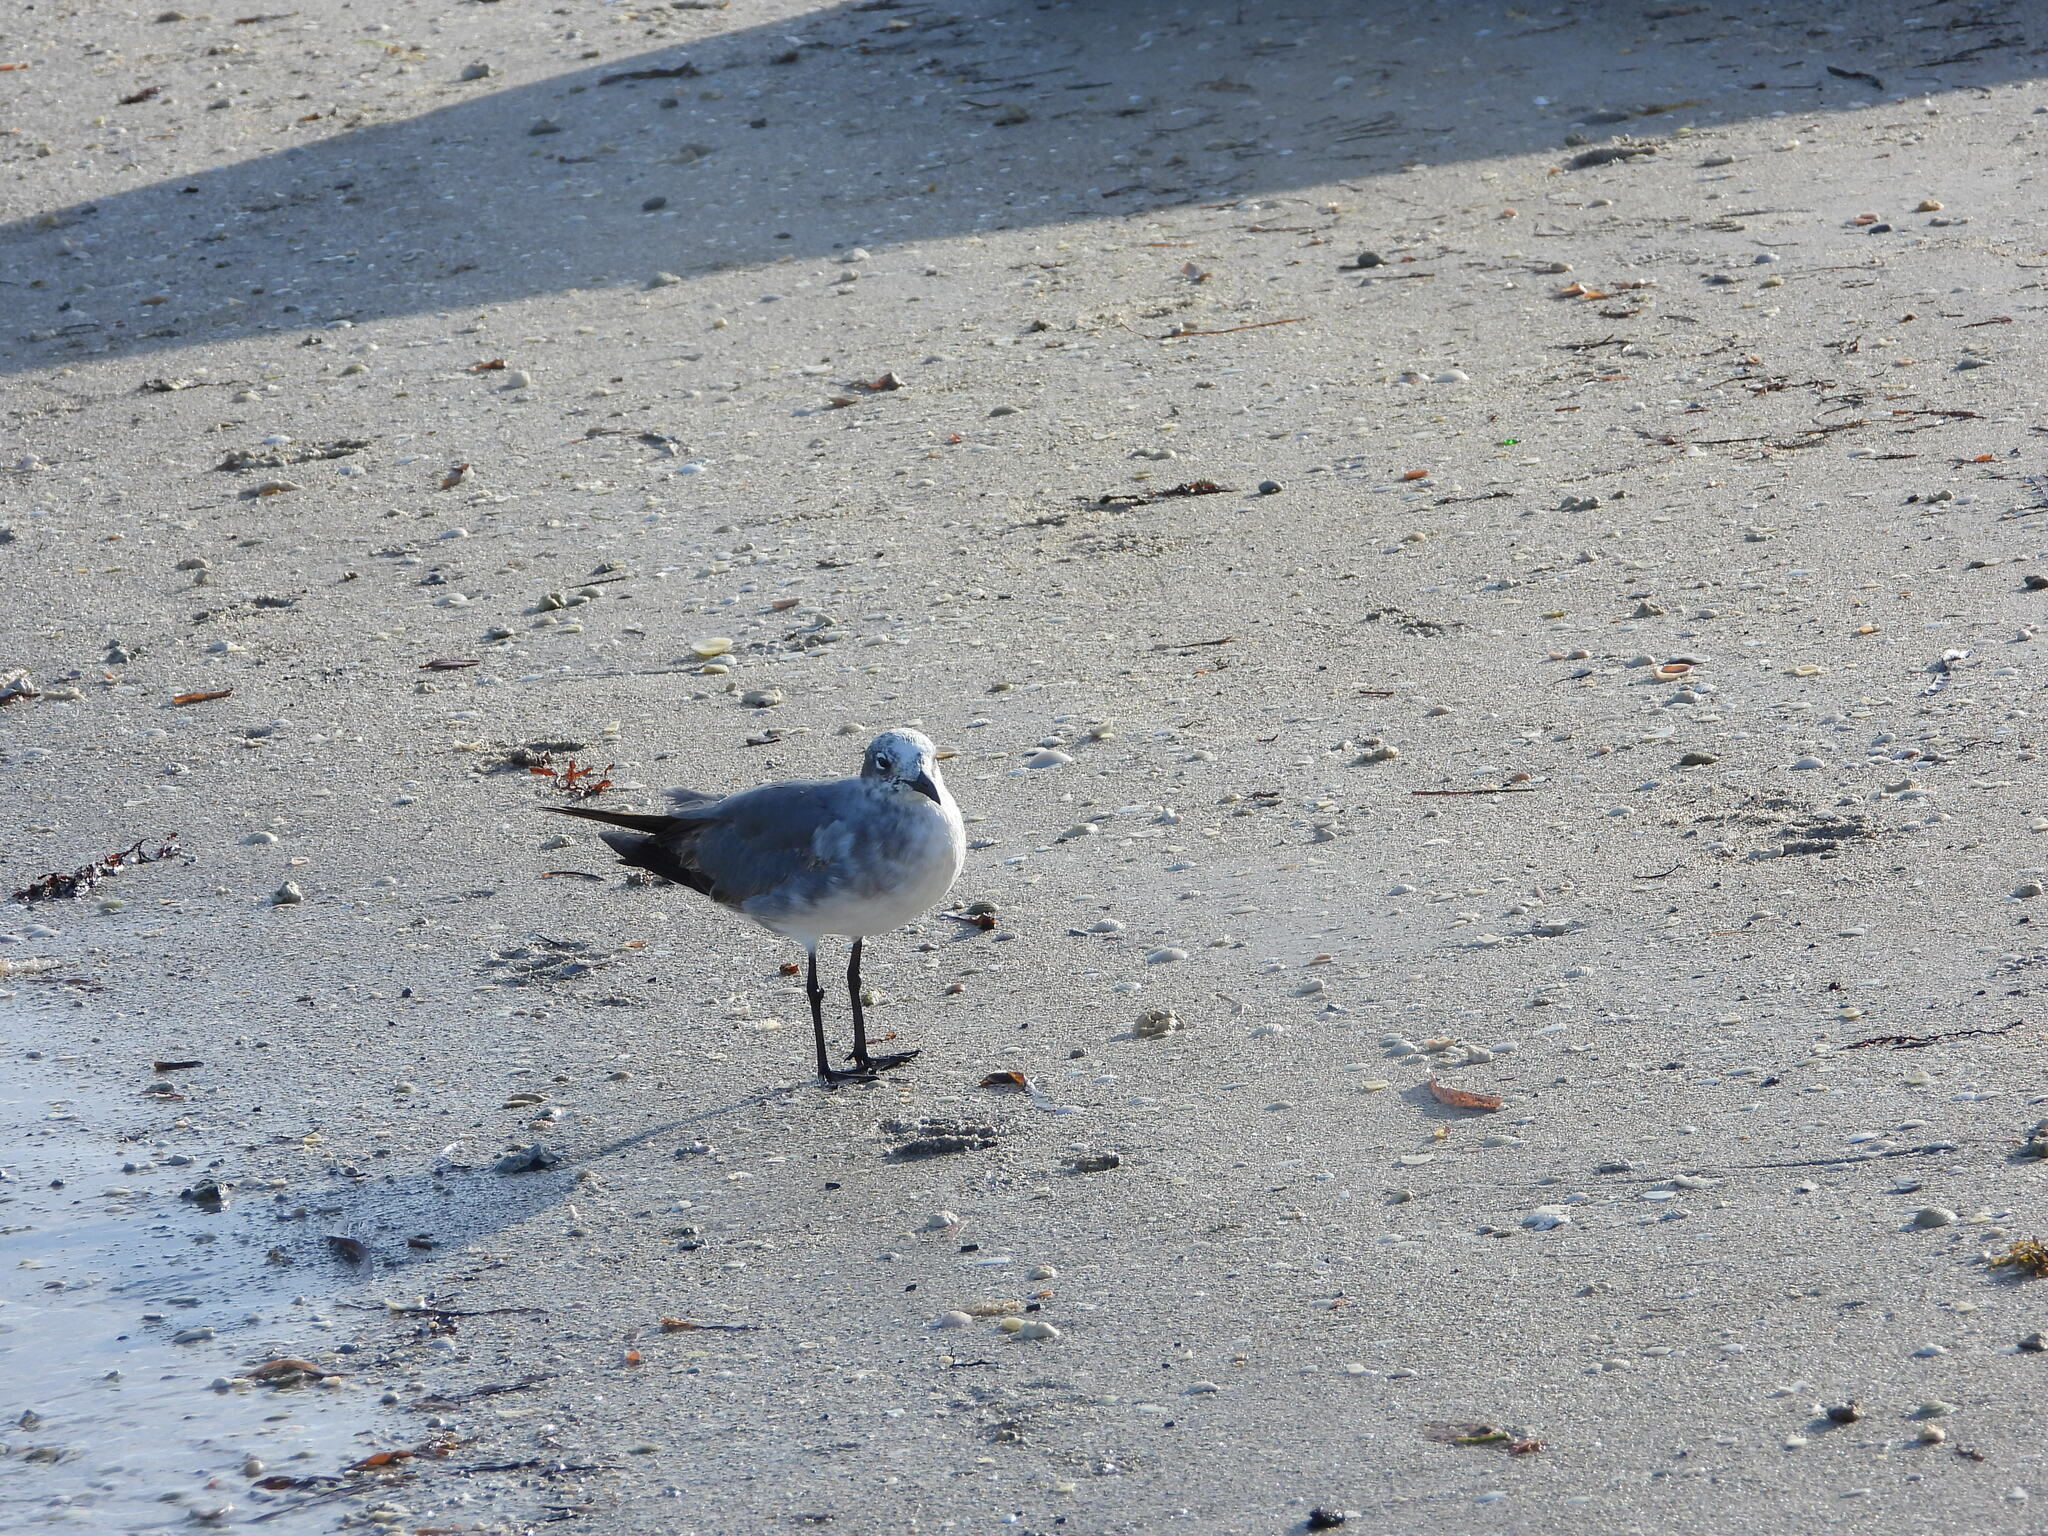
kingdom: Animalia
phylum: Chordata
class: Aves
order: Charadriiformes
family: Laridae
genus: Leucophaeus
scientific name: Leucophaeus atricilla
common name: Laughing gull
